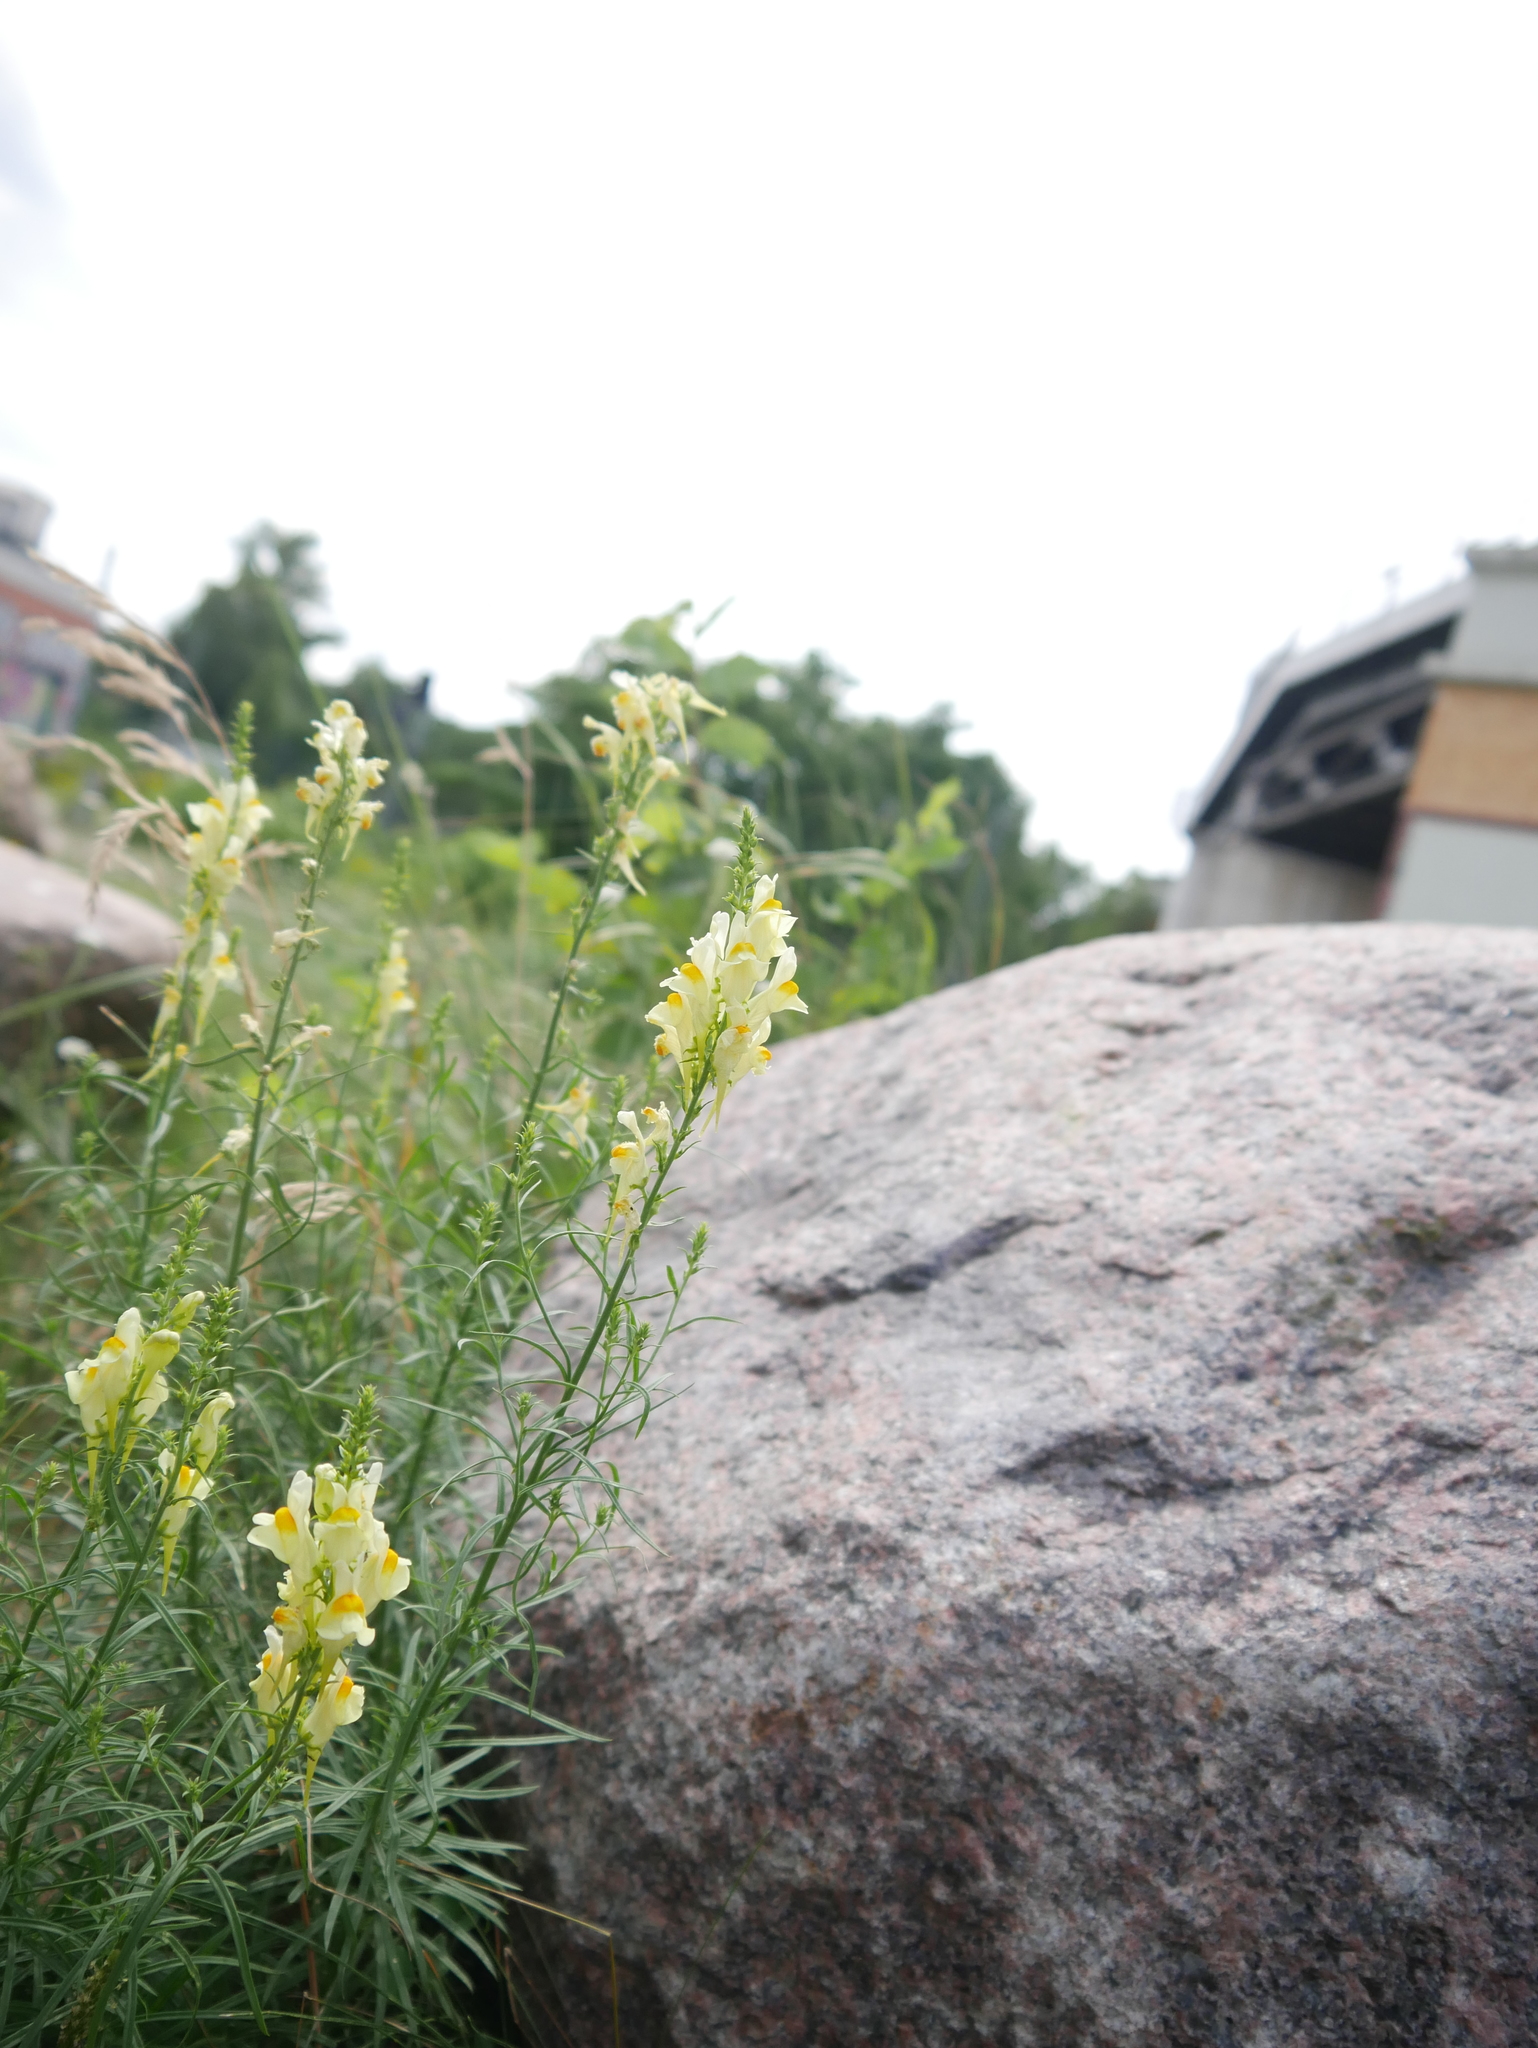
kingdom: Plantae
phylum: Tracheophyta
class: Magnoliopsida
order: Lamiales
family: Plantaginaceae
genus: Linaria
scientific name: Linaria vulgaris
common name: Butter and eggs
